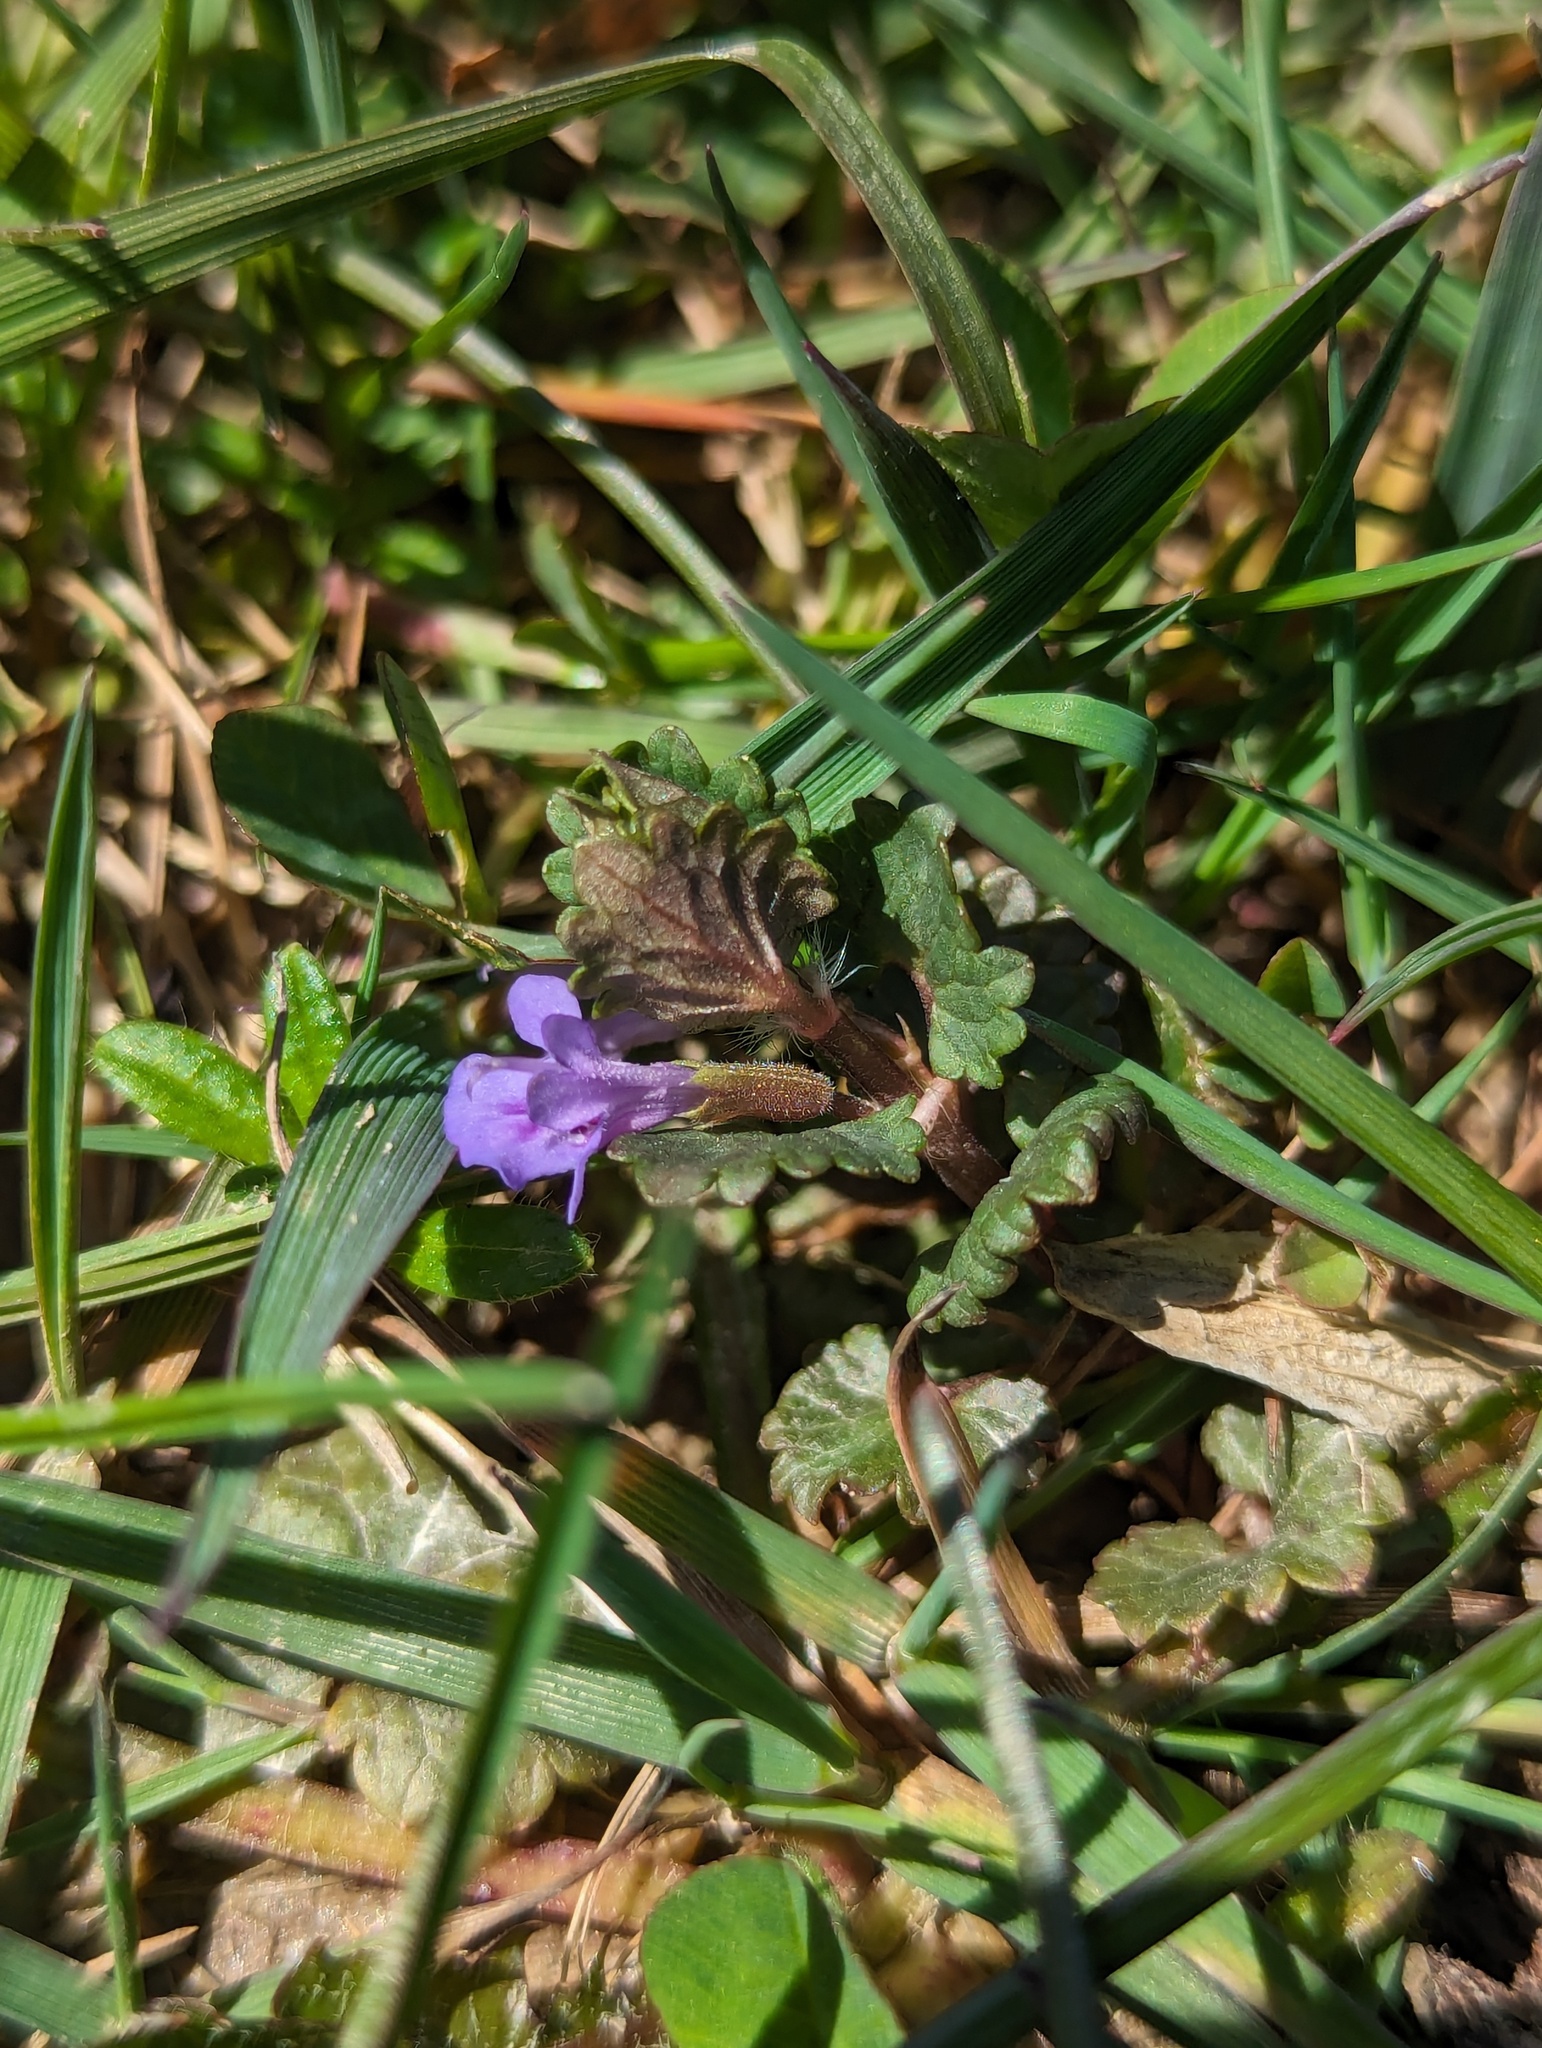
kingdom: Plantae
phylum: Tracheophyta
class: Magnoliopsida
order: Lamiales
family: Lamiaceae
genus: Glechoma
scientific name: Glechoma hederacea
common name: Ground ivy
